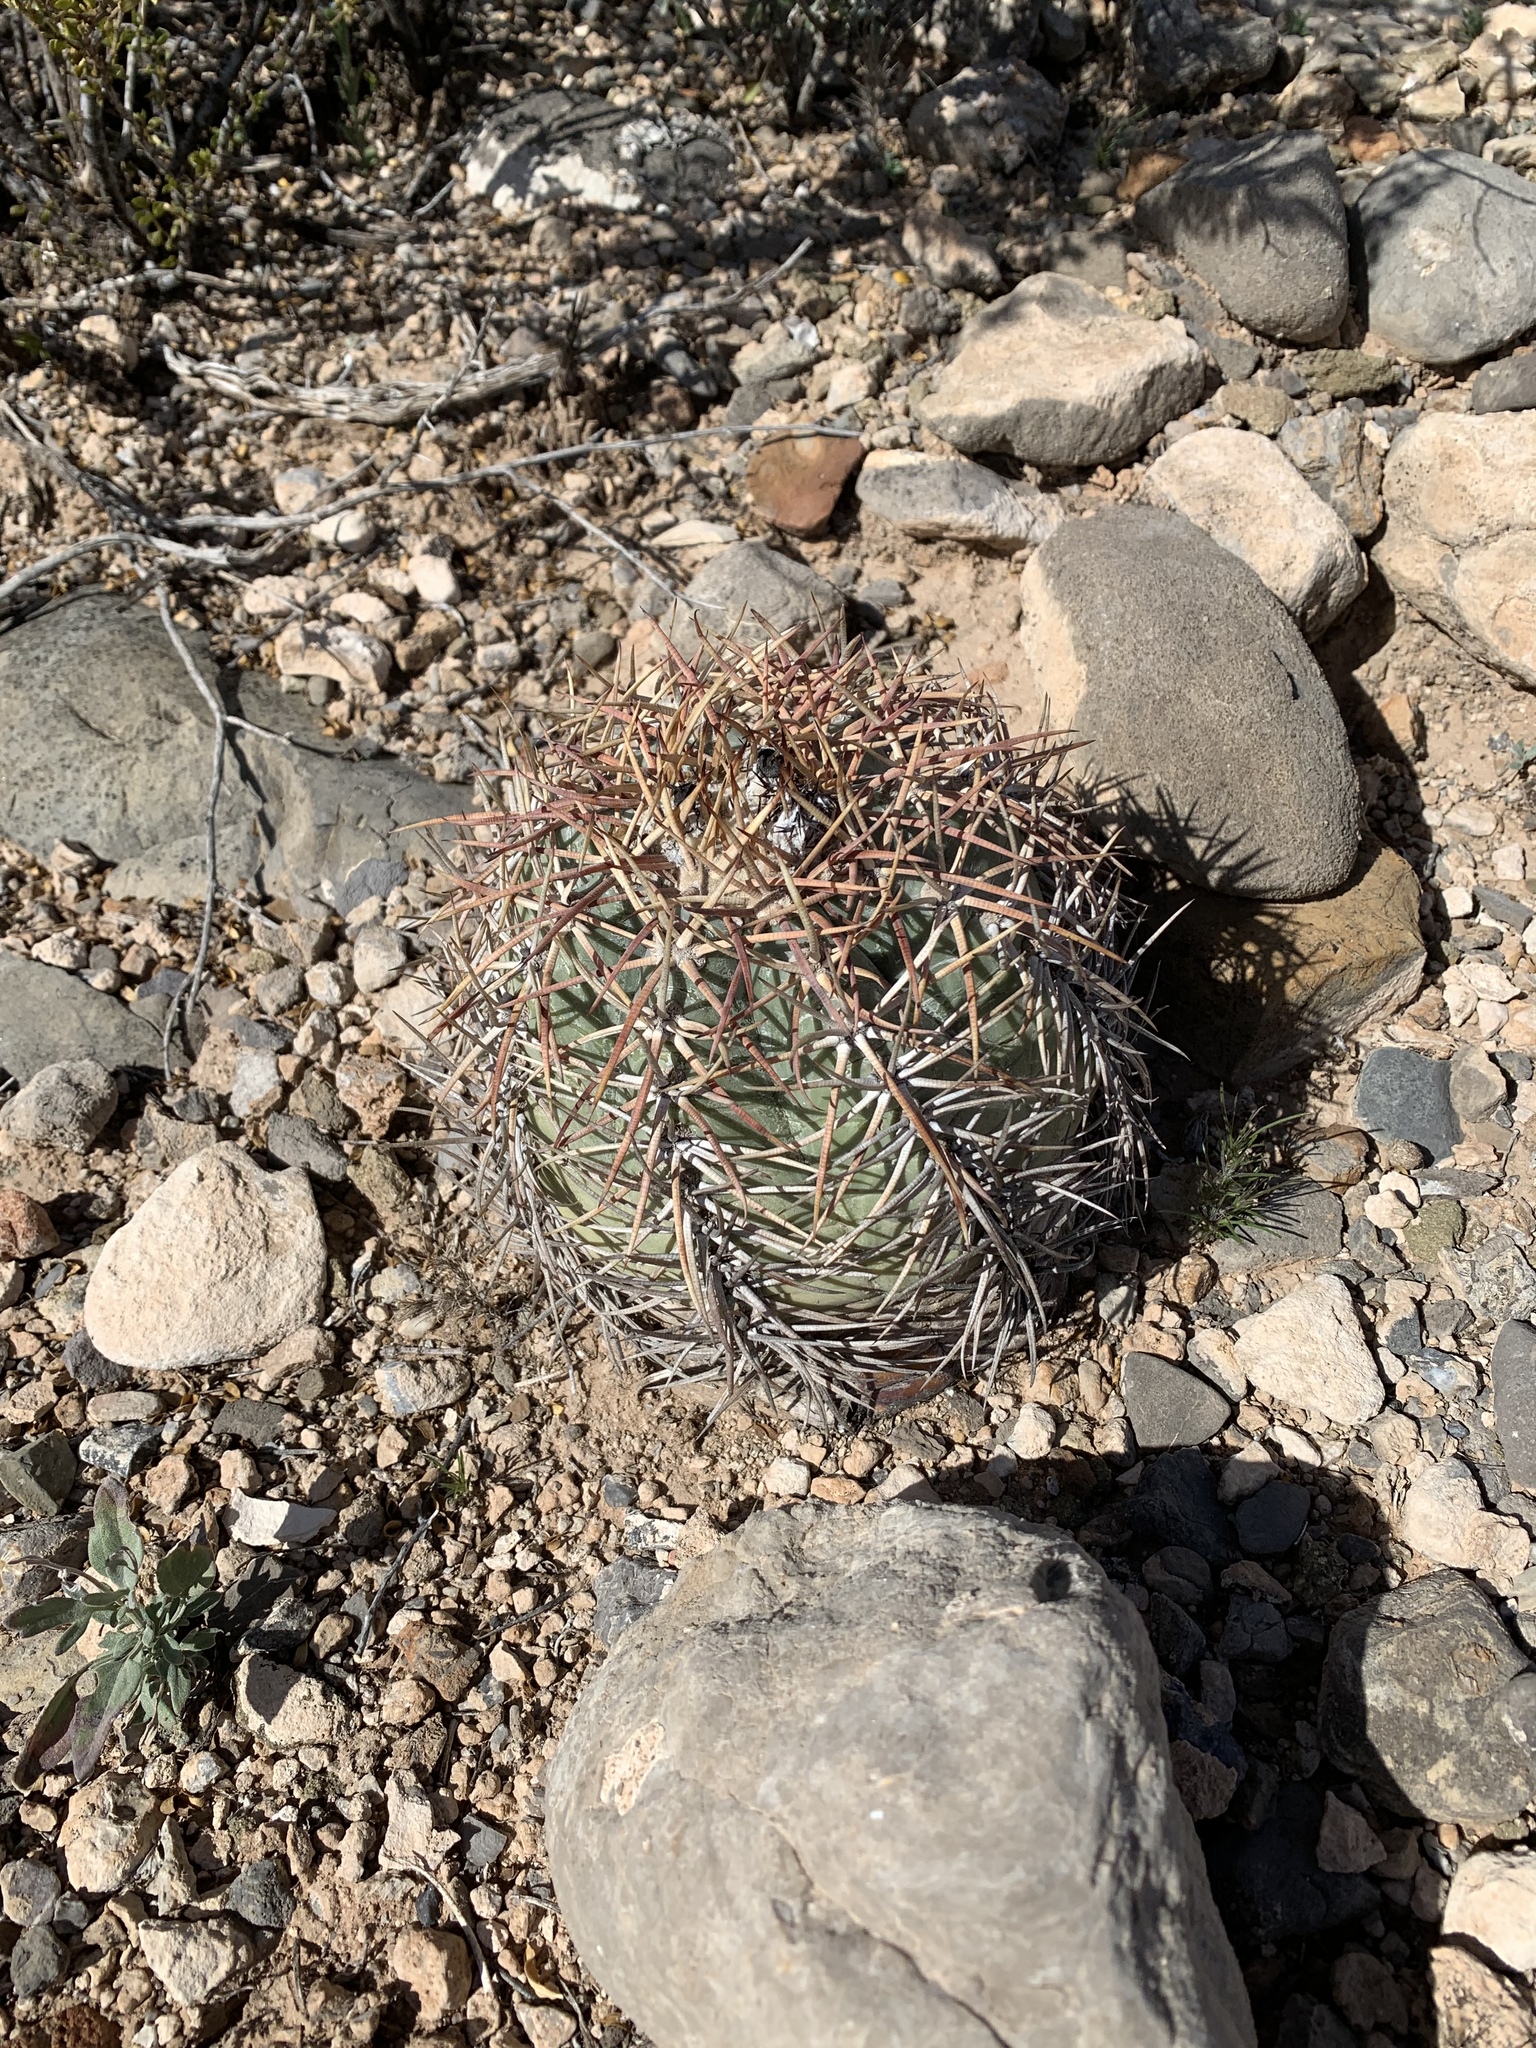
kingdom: Plantae
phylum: Tracheophyta
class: Magnoliopsida
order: Caryophyllales
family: Cactaceae
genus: Echinocactus
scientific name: Echinocactus horizonthalonius
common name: Devilshead
